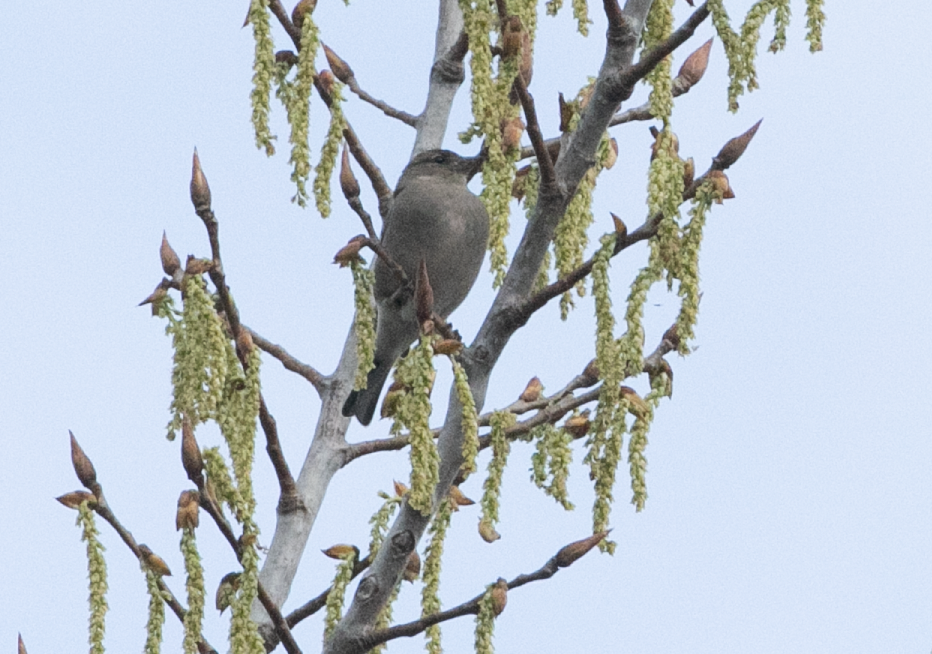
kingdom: Animalia
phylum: Chordata
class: Aves
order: Passeriformes
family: Fringillidae
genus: Fringilla
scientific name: Fringilla coelebs
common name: Common chaffinch
